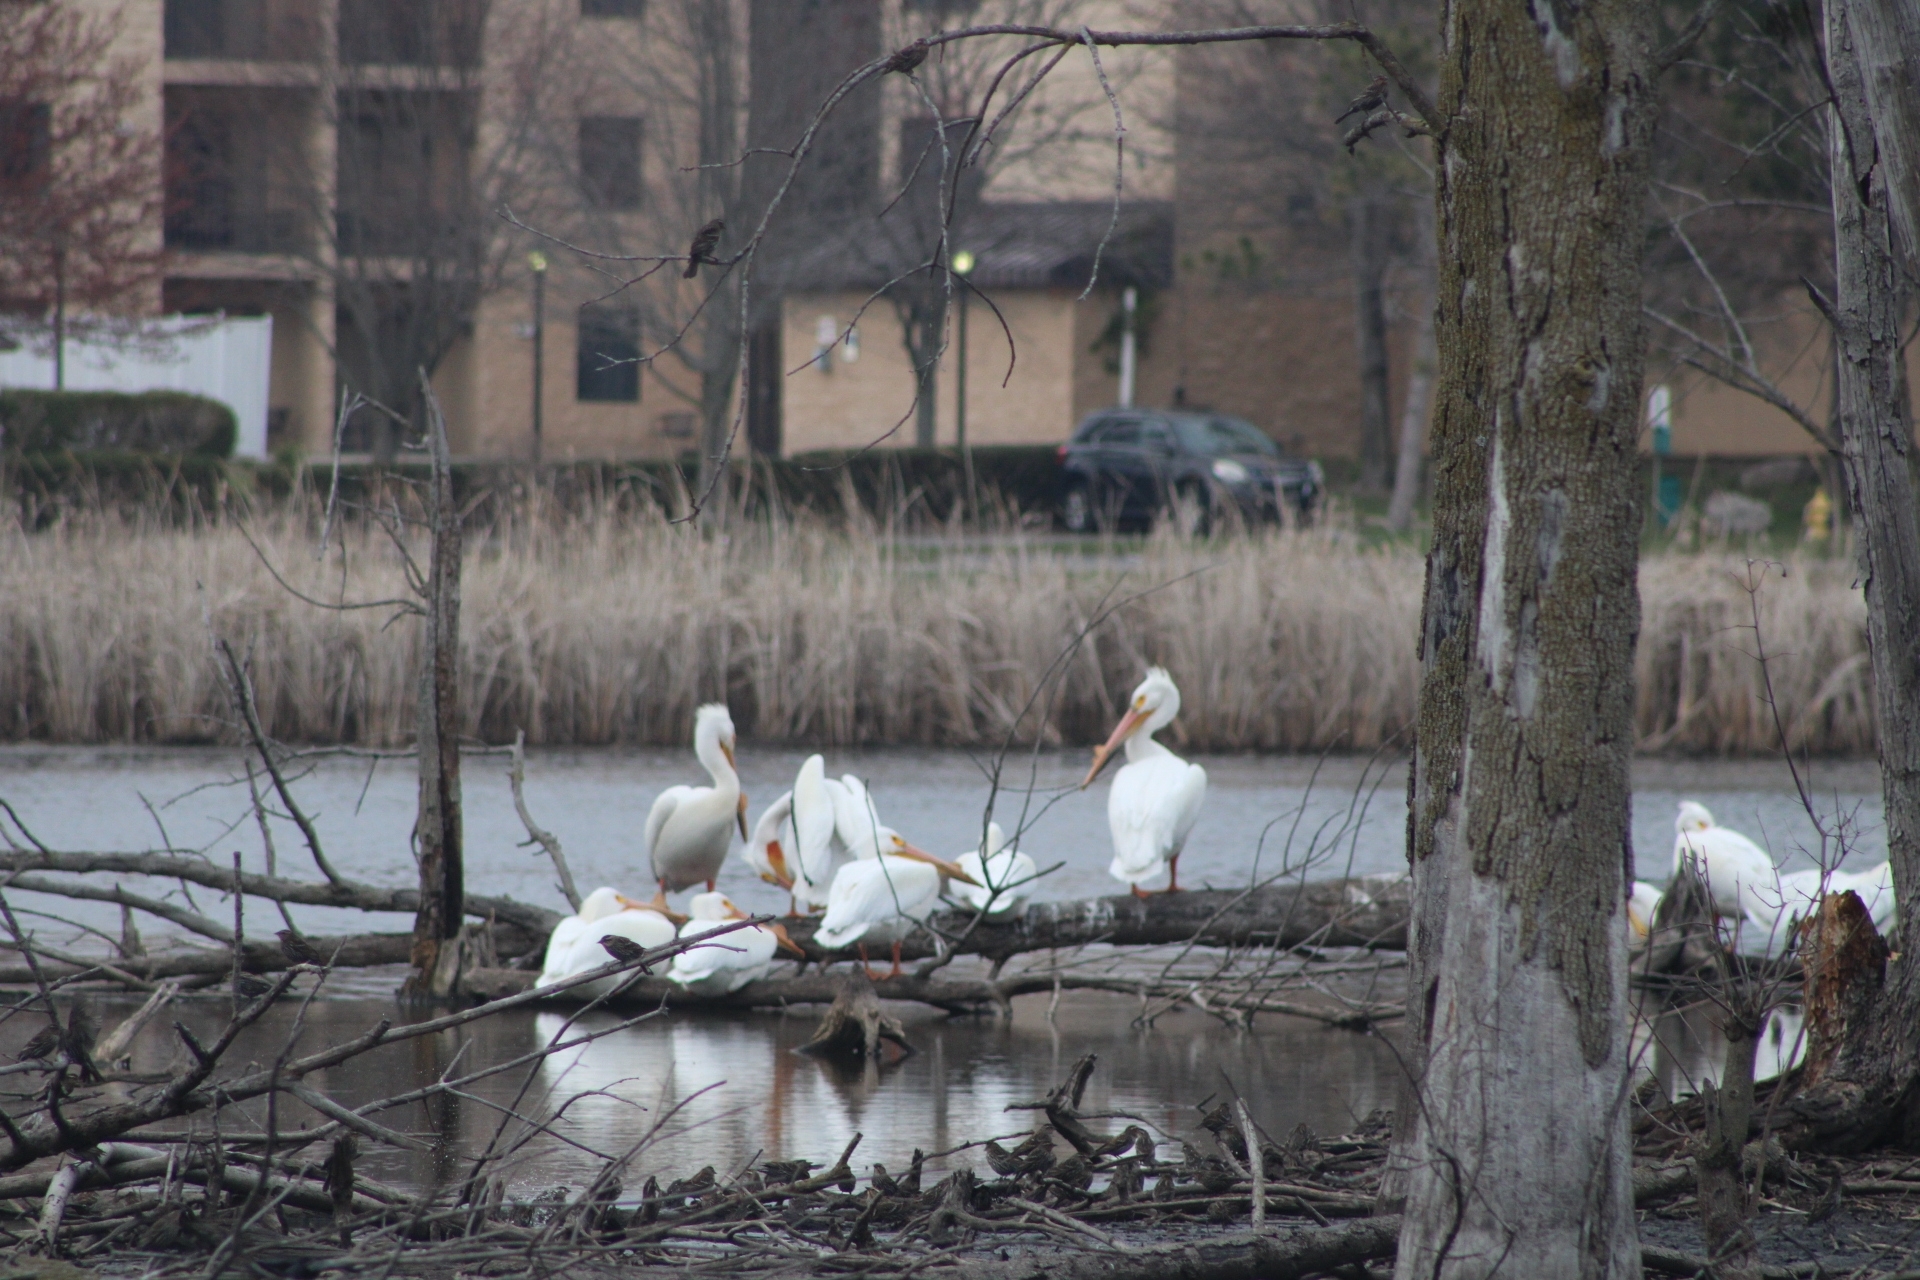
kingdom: Animalia
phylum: Chordata
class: Aves
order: Pelecaniformes
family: Pelecanidae
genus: Pelecanus
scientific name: Pelecanus erythrorhynchos
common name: American white pelican
